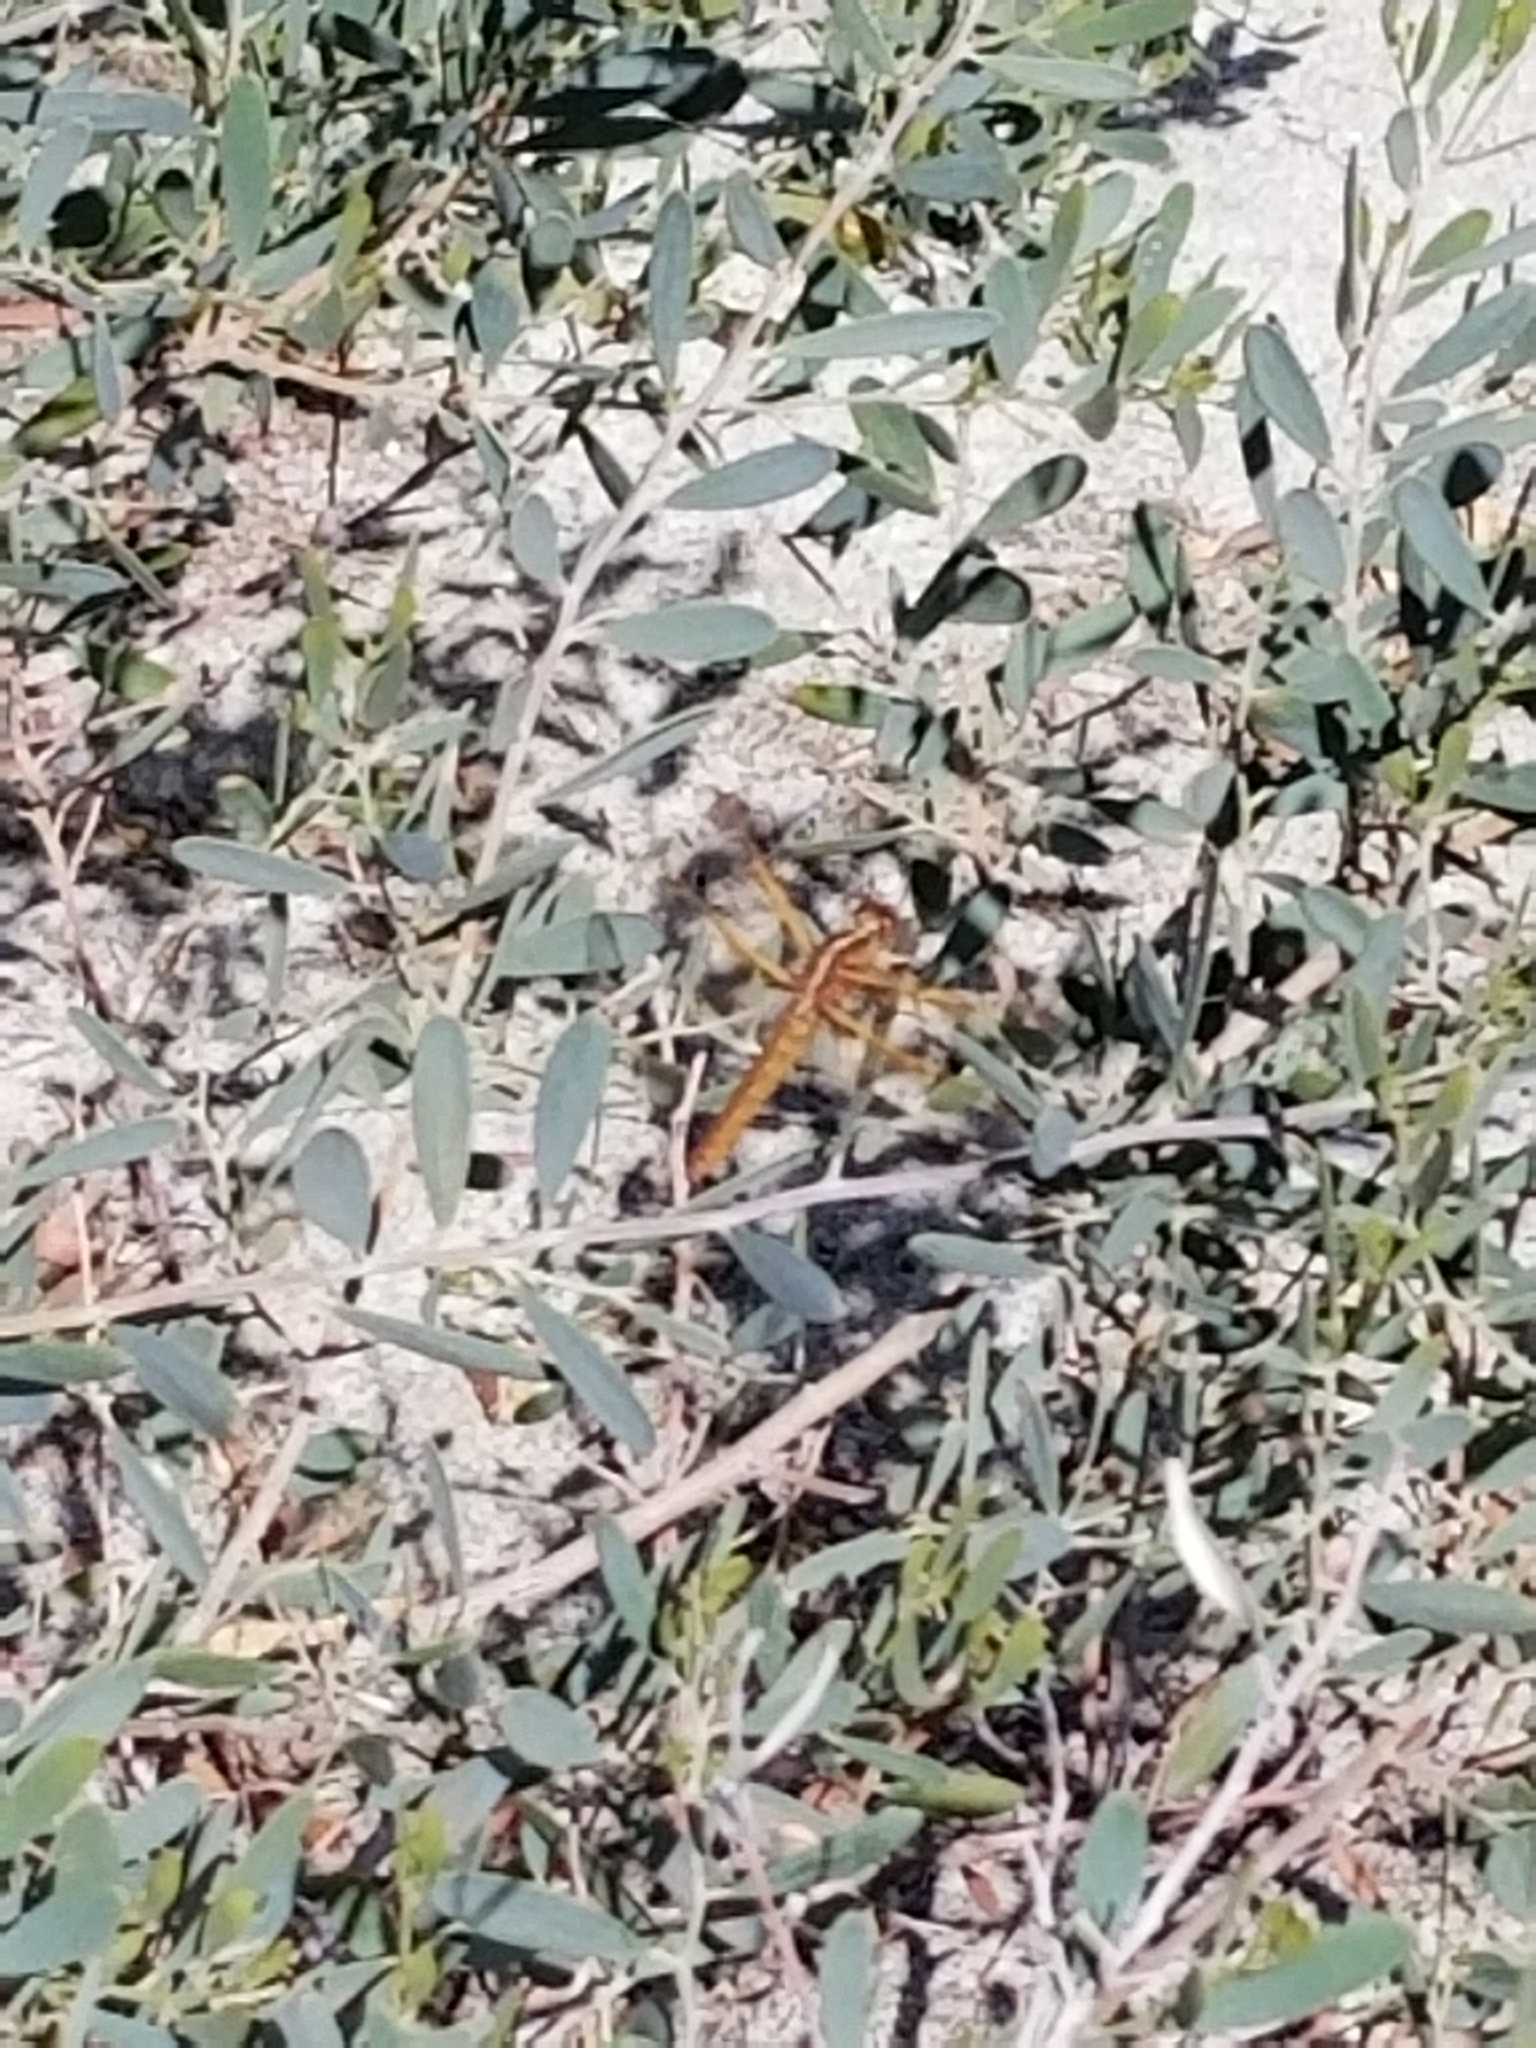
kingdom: Animalia
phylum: Arthropoda
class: Insecta
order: Odonata
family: Libellulidae
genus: Libellula
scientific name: Libellula saturata
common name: Flame skimmer
